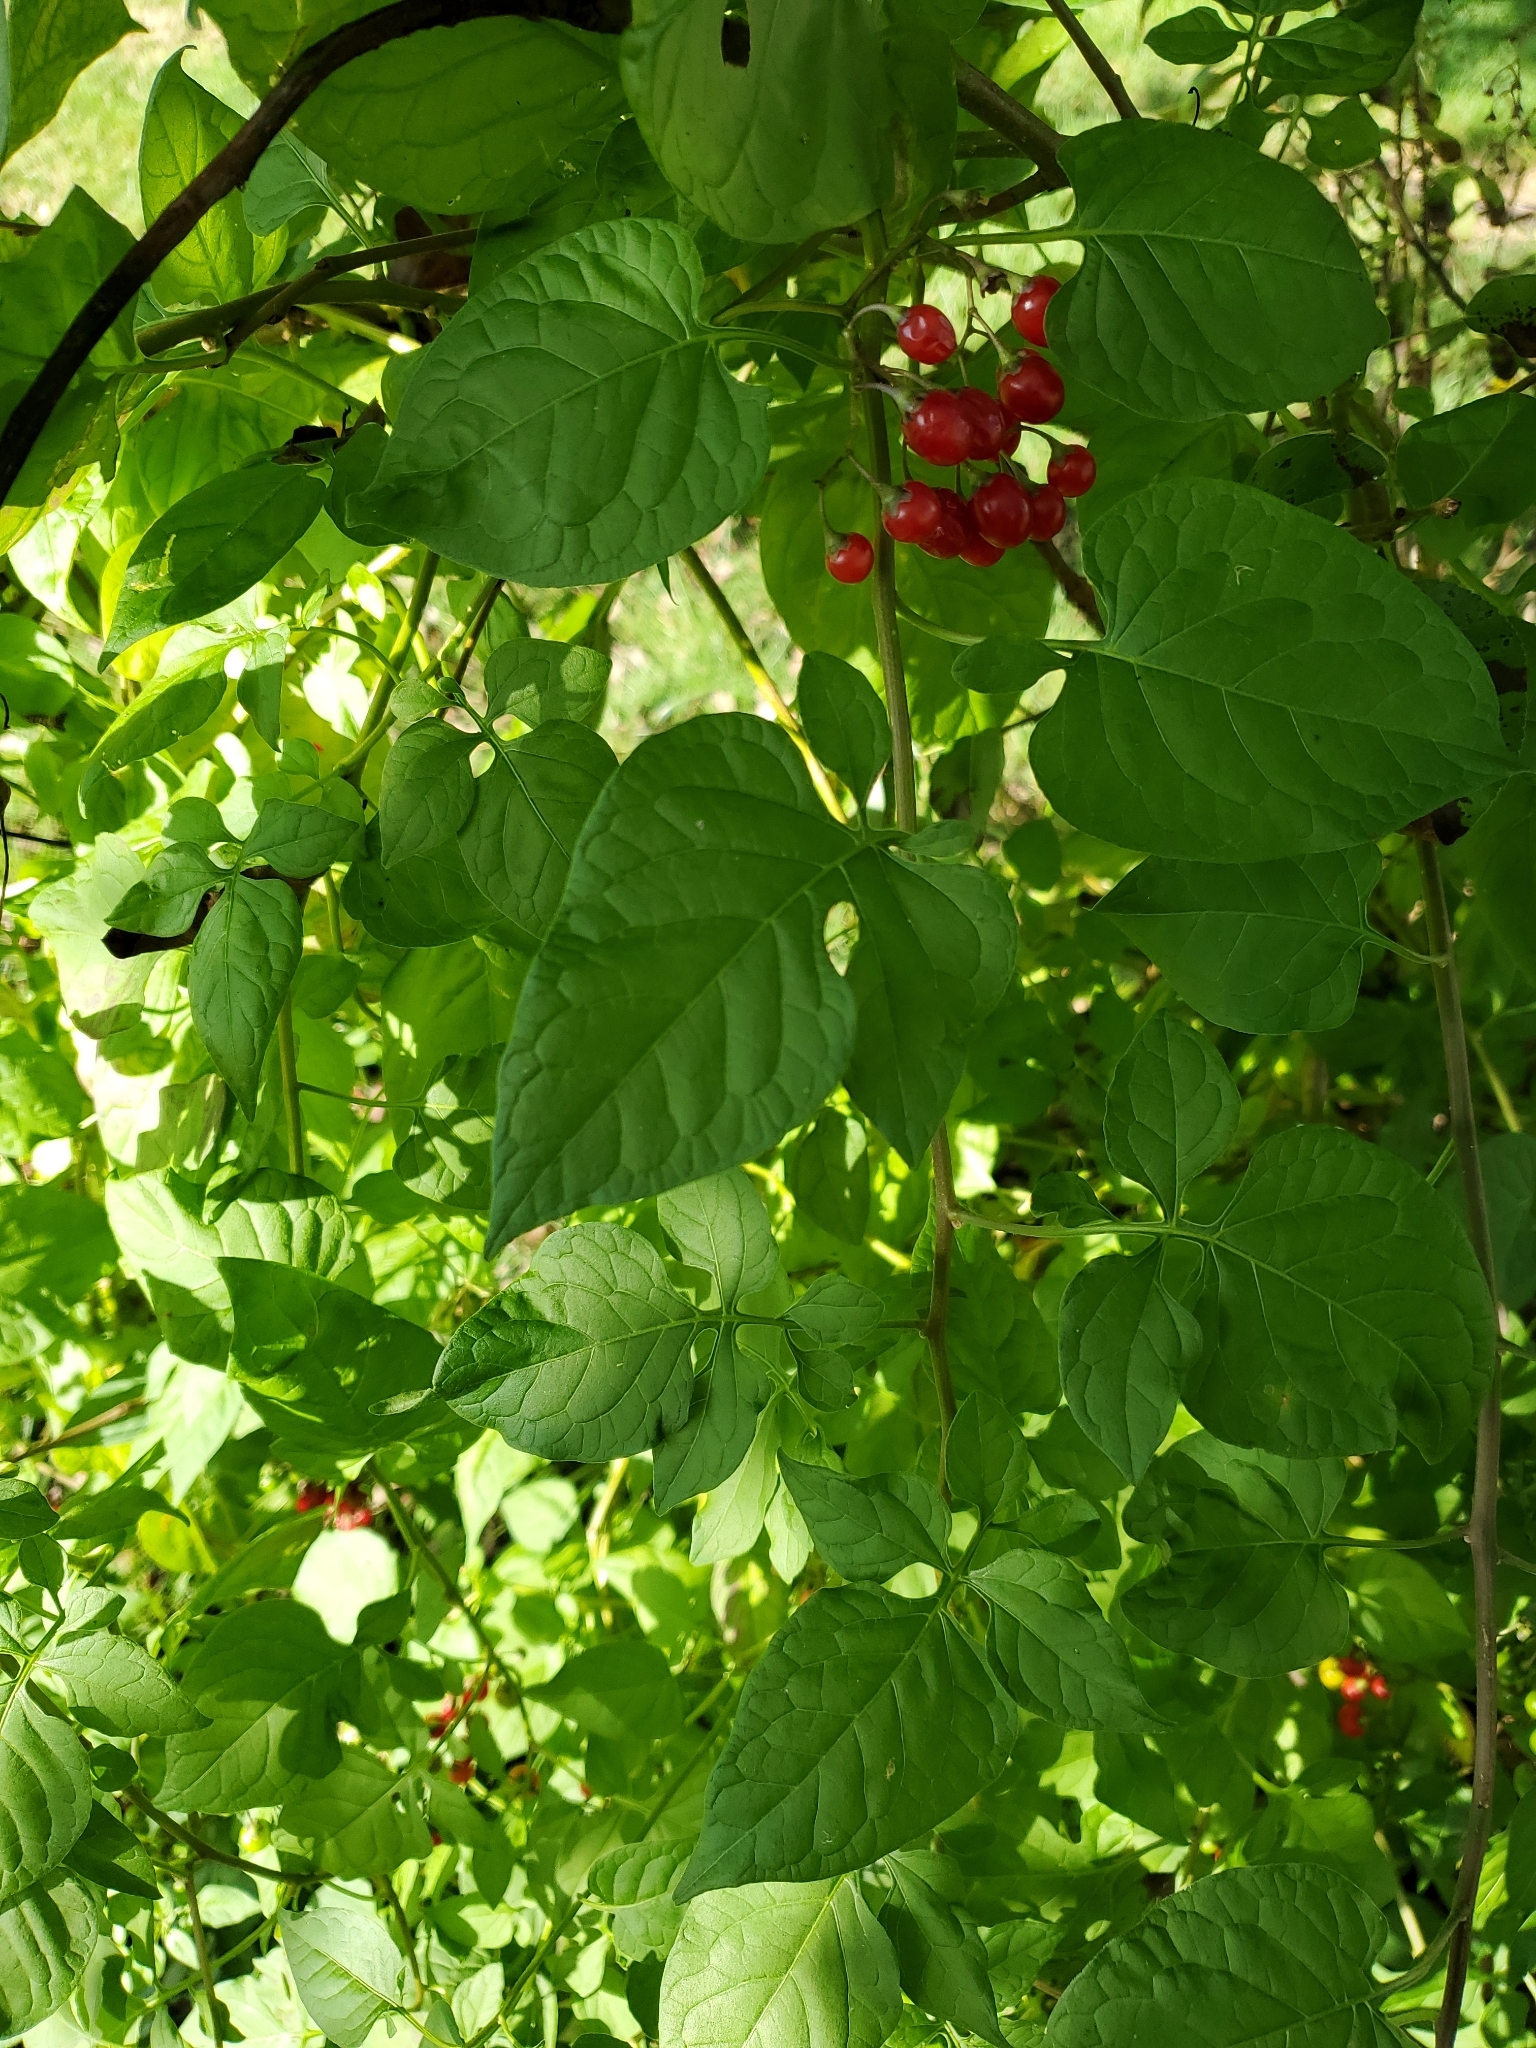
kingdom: Plantae
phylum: Tracheophyta
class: Magnoliopsida
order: Solanales
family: Solanaceae
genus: Solanum
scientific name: Solanum dulcamara
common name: Climbing nightshade
